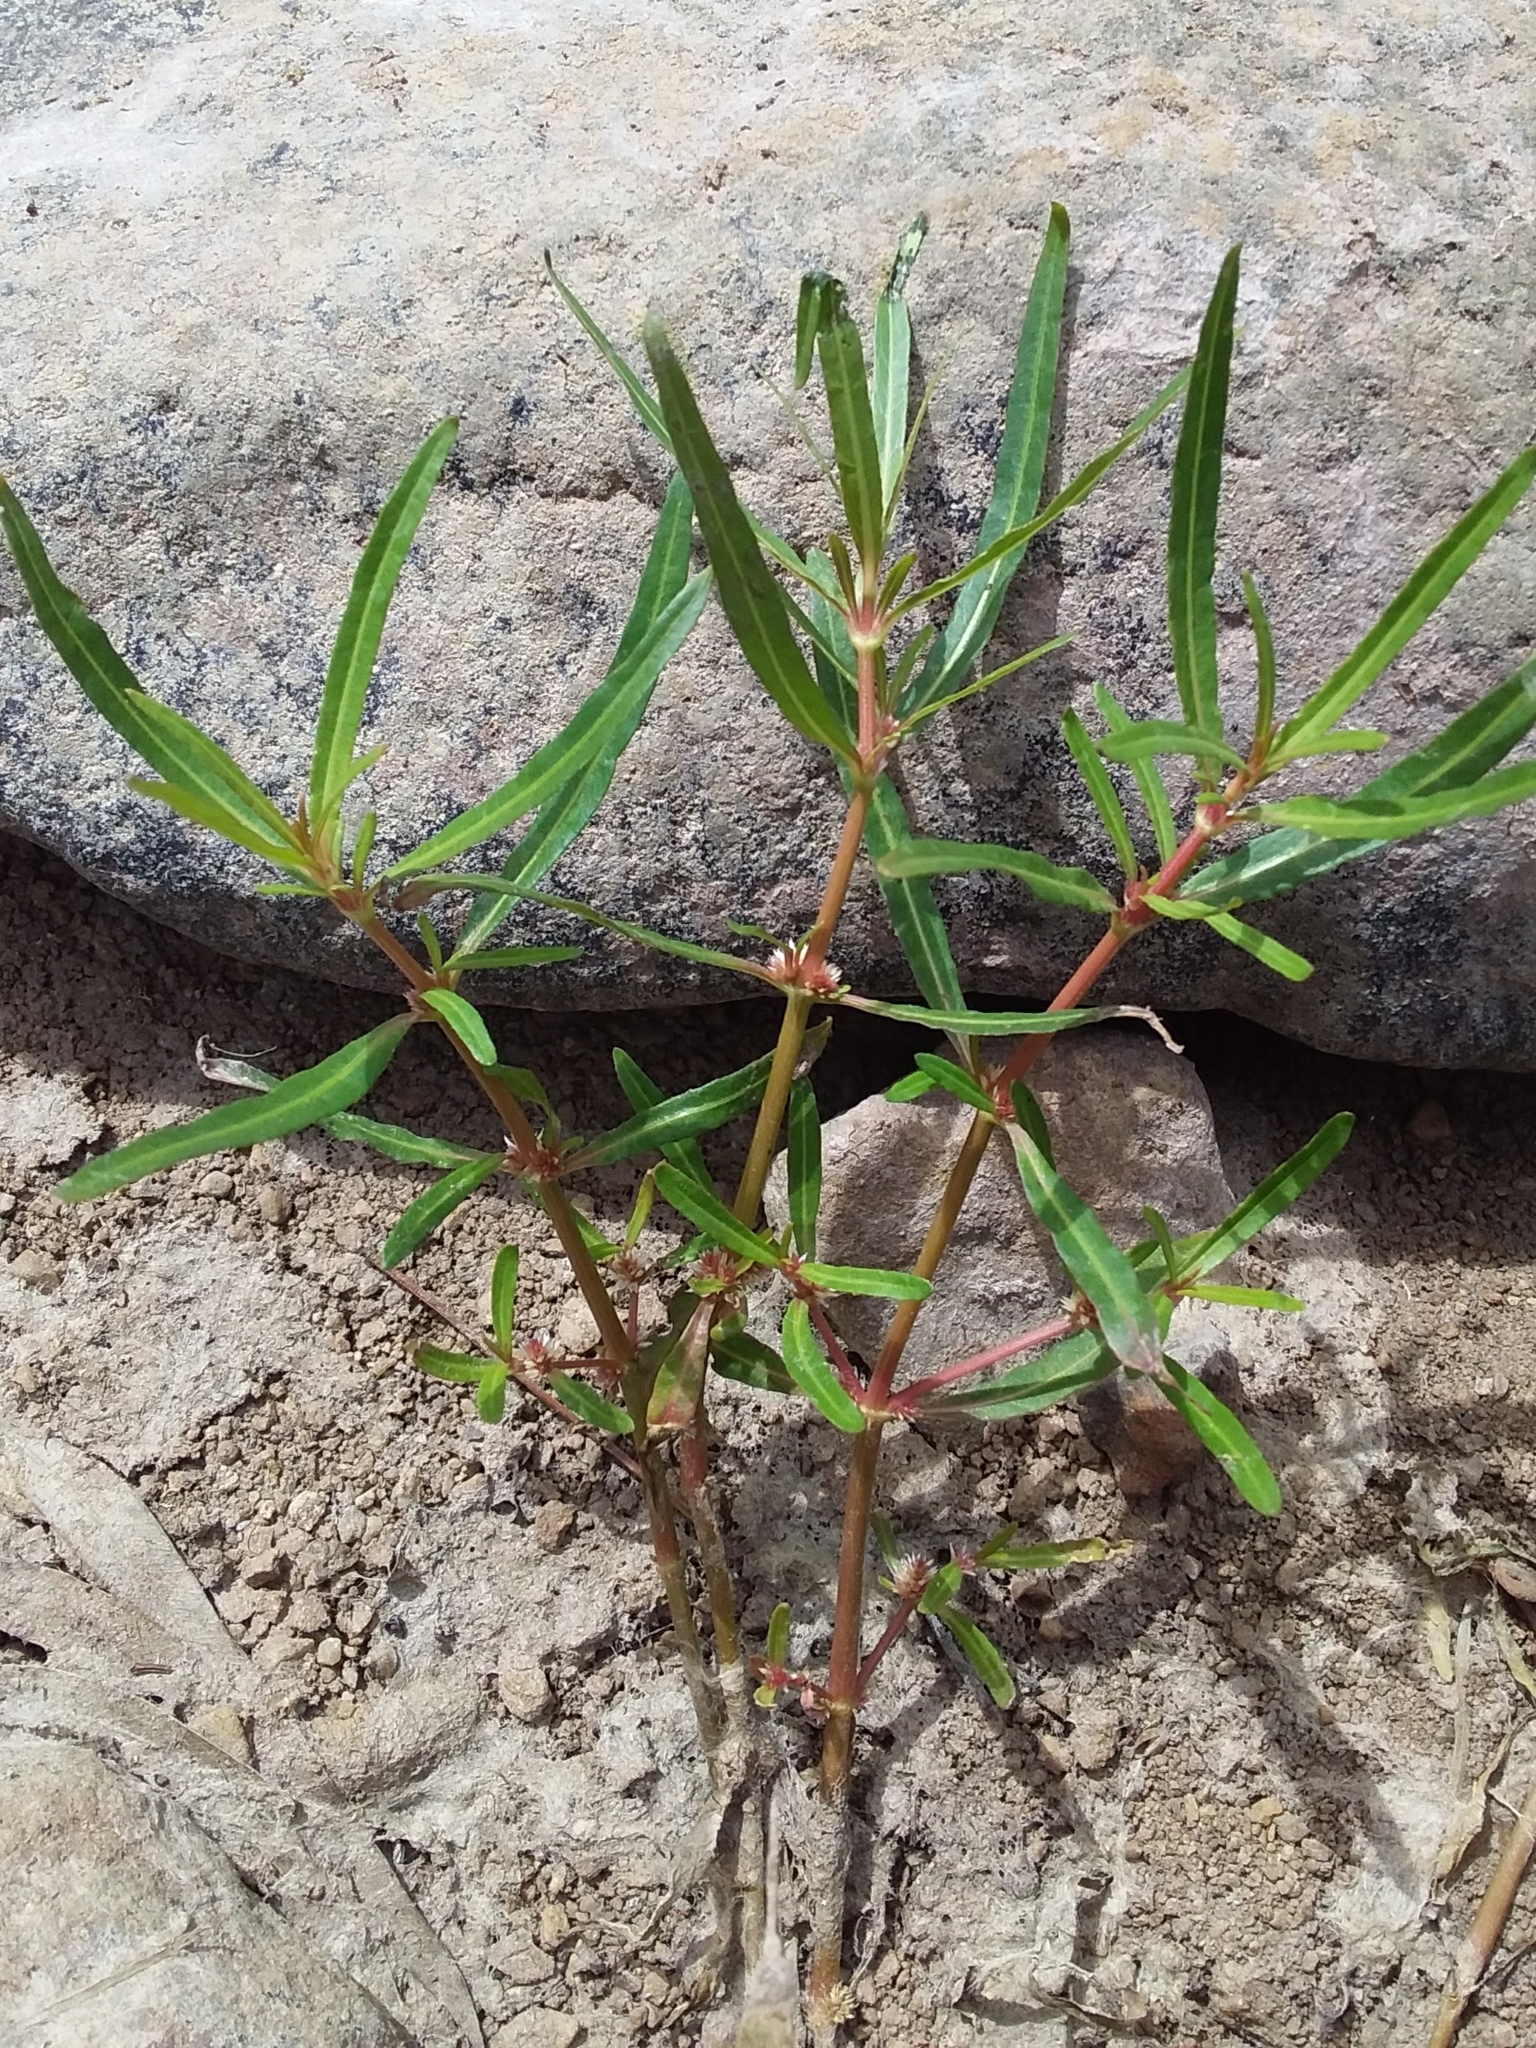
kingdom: Plantae
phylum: Tracheophyta
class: Magnoliopsida
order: Caryophyllales
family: Amaranthaceae
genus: Alternanthera
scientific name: Alternanthera denticulata
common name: Lesser joyweed
